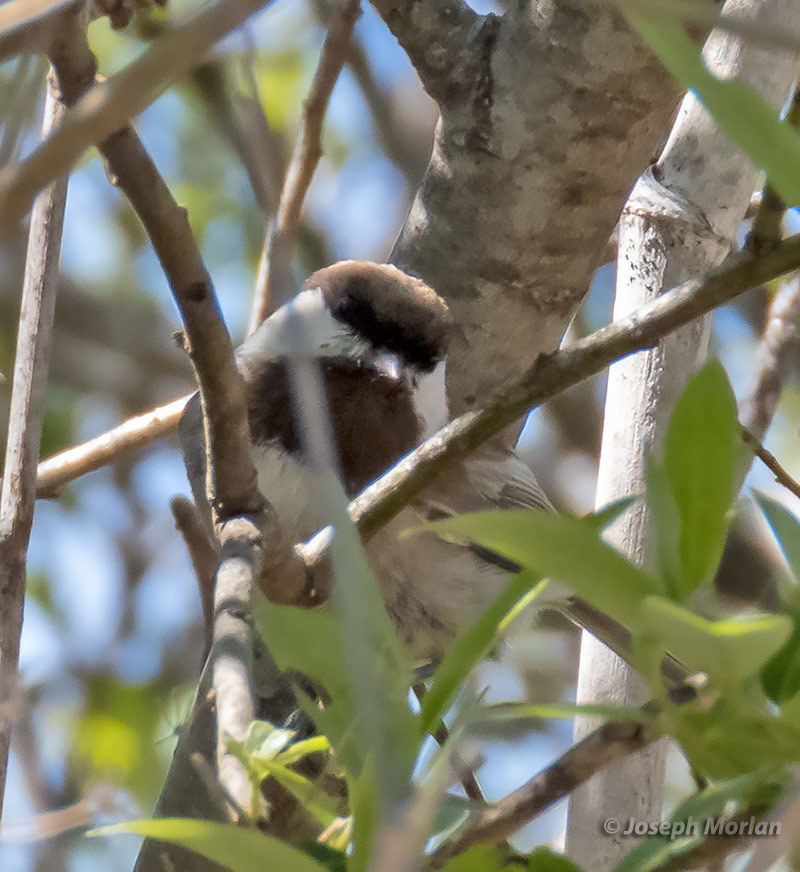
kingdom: Animalia
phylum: Chordata
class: Aves
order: Passeriformes
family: Paridae
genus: Poecile
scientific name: Poecile rufescens
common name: Chestnut-backed chickadee
